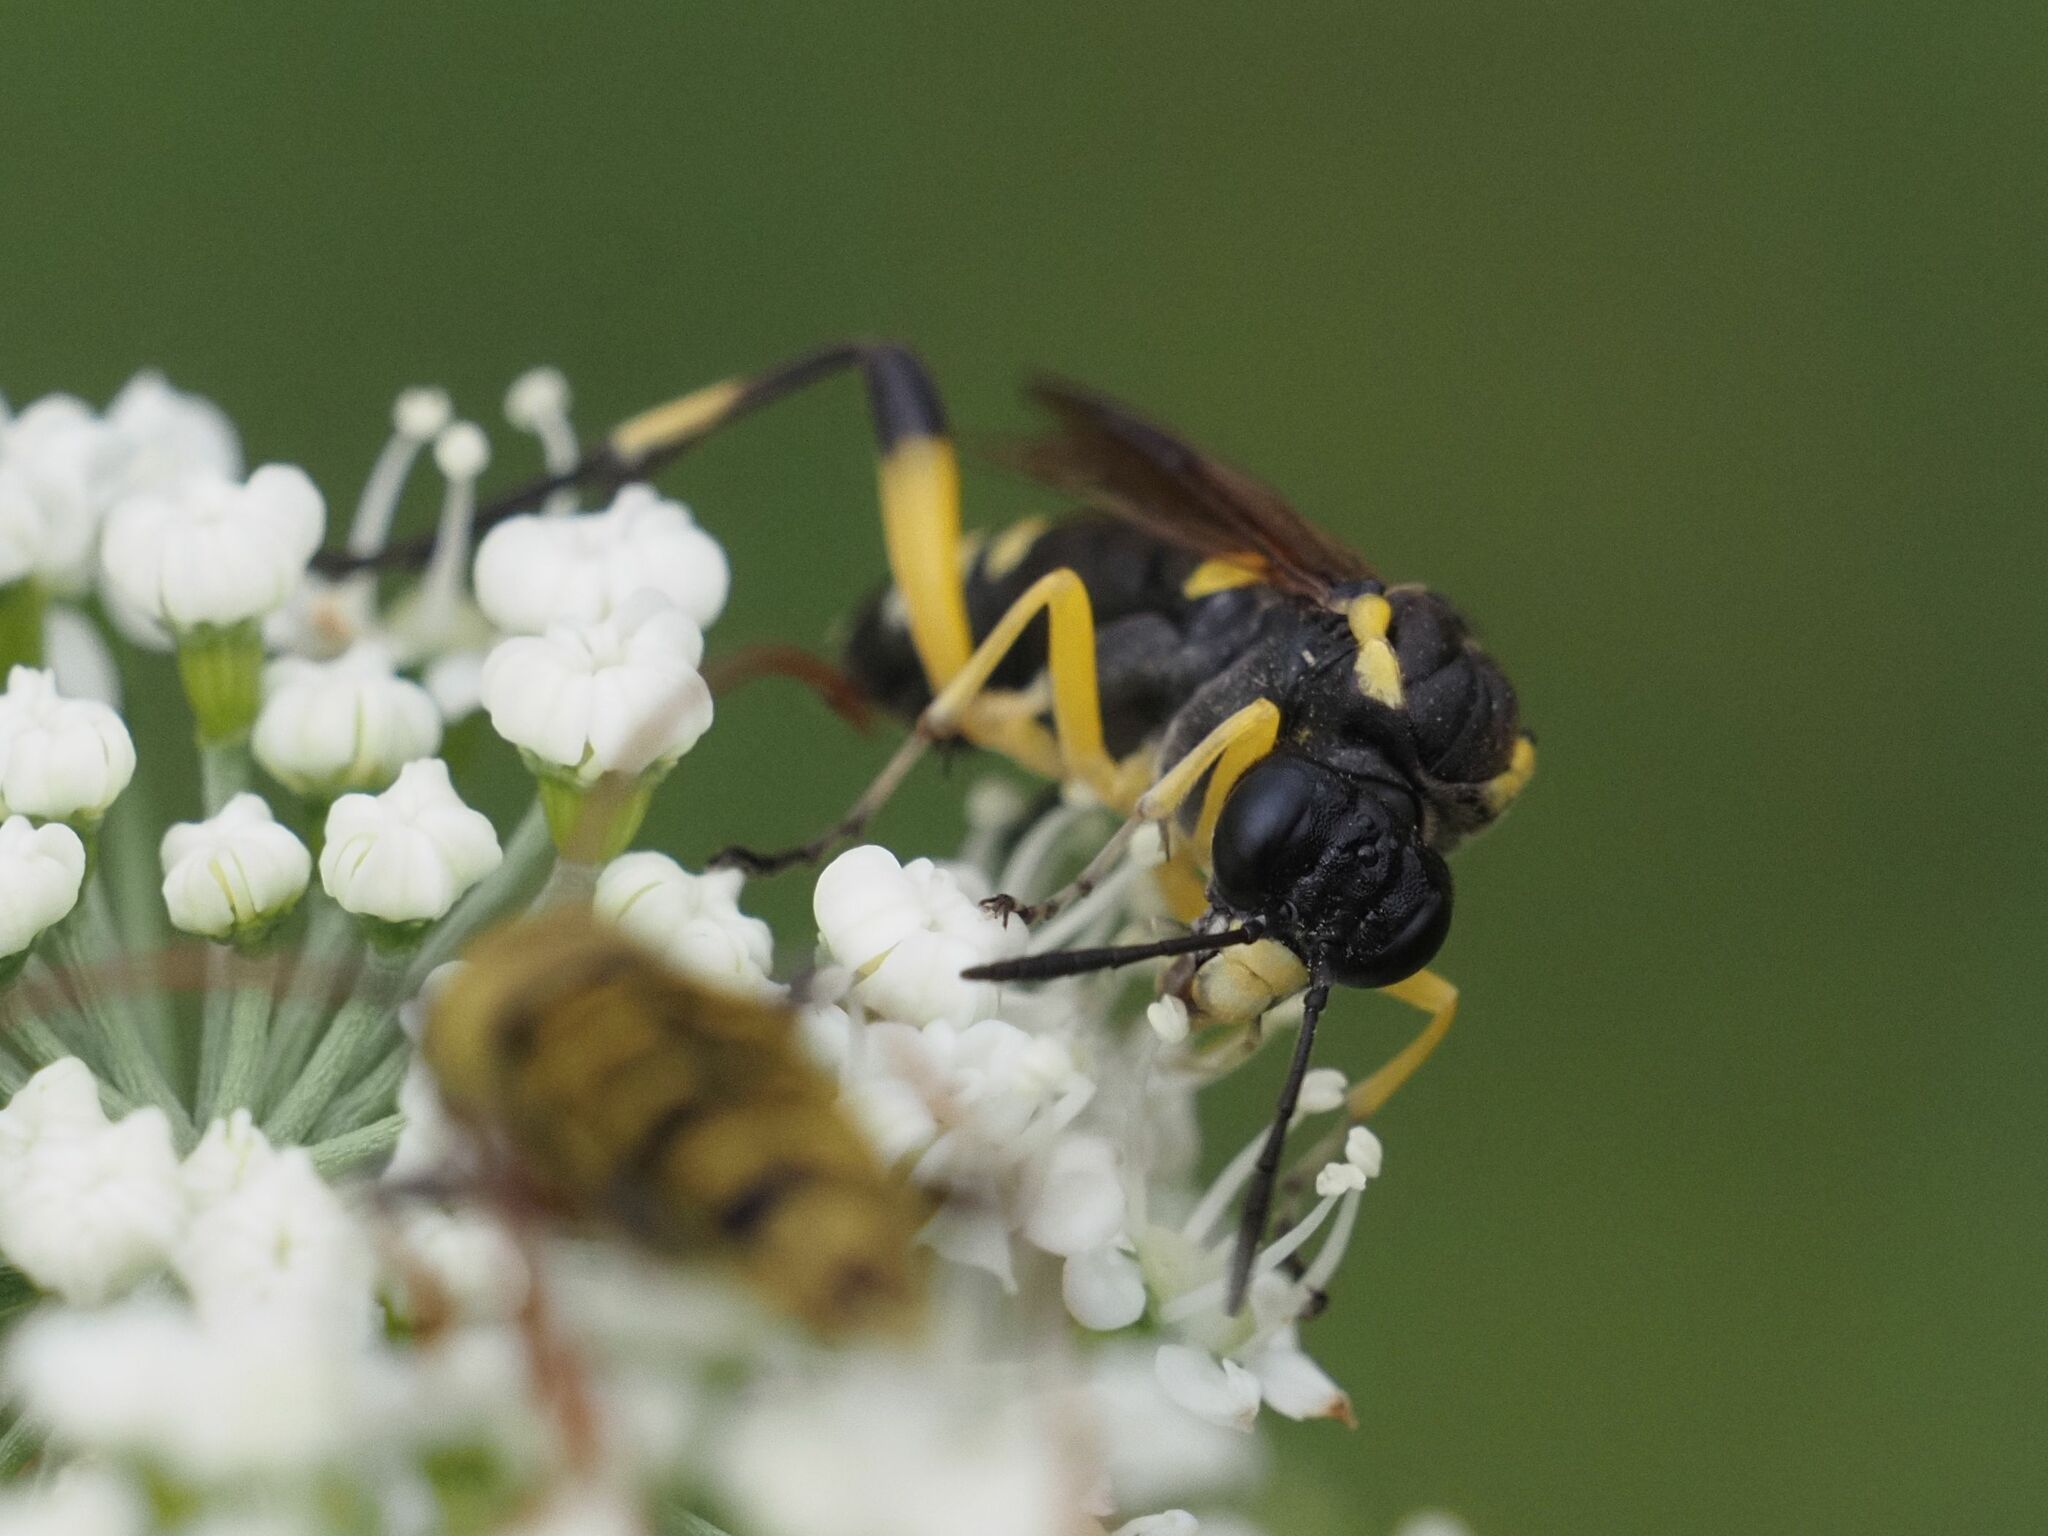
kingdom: Animalia
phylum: Arthropoda
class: Insecta
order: Hymenoptera
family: Tenthredinidae
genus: Macrophya
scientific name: Macrophya montana
